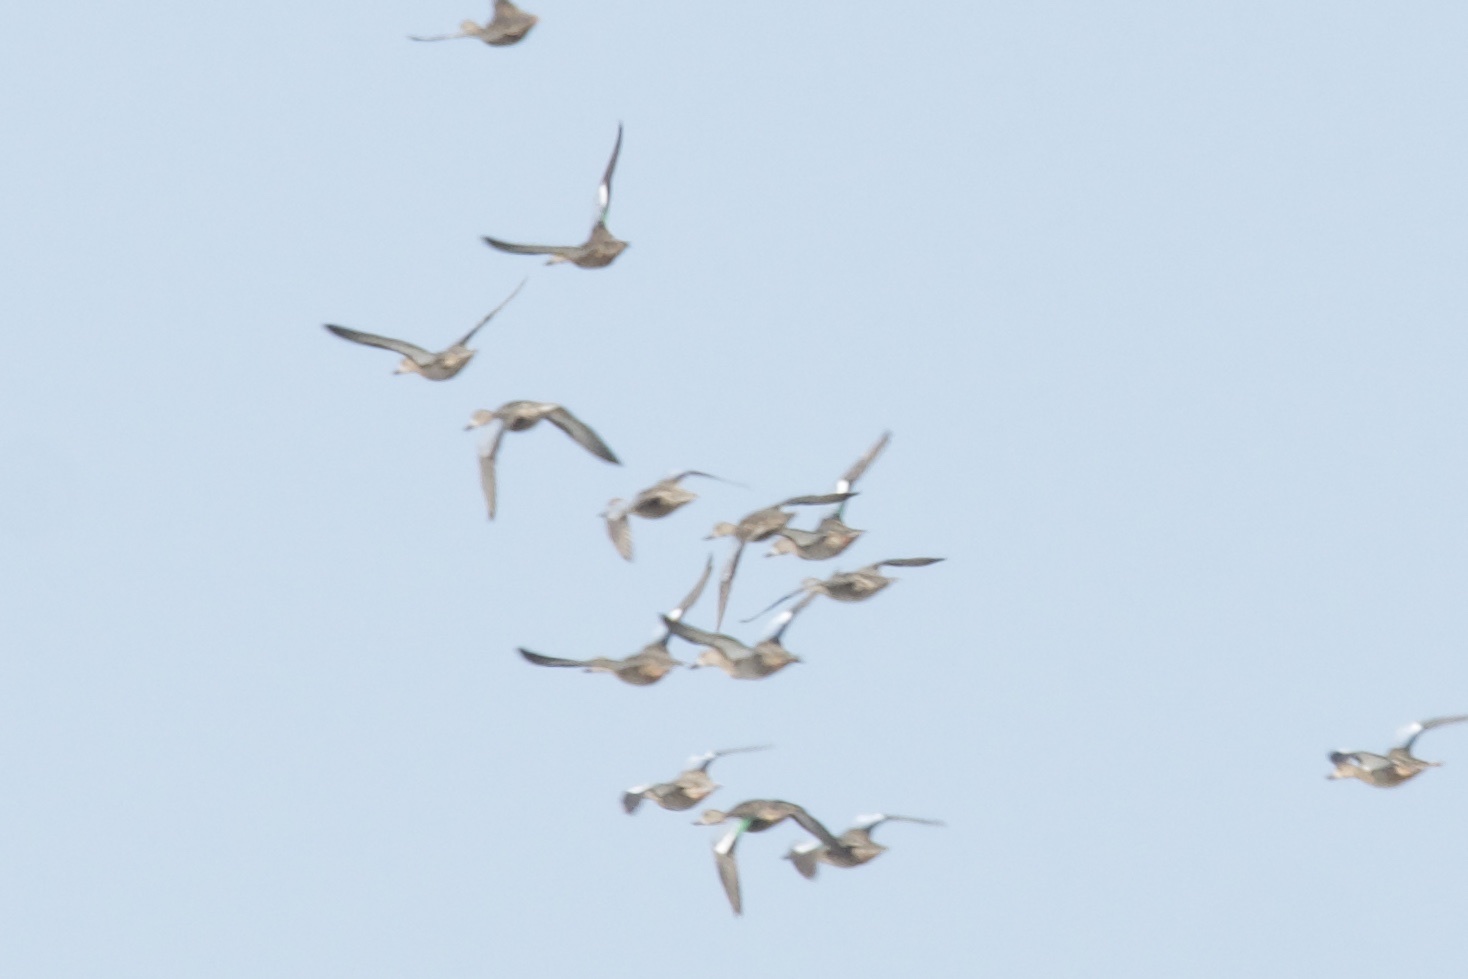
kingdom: Animalia
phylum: Chordata
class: Aves
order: Anseriformes
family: Anatidae
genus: Spatula
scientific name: Spatula discors
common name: Blue-winged teal
